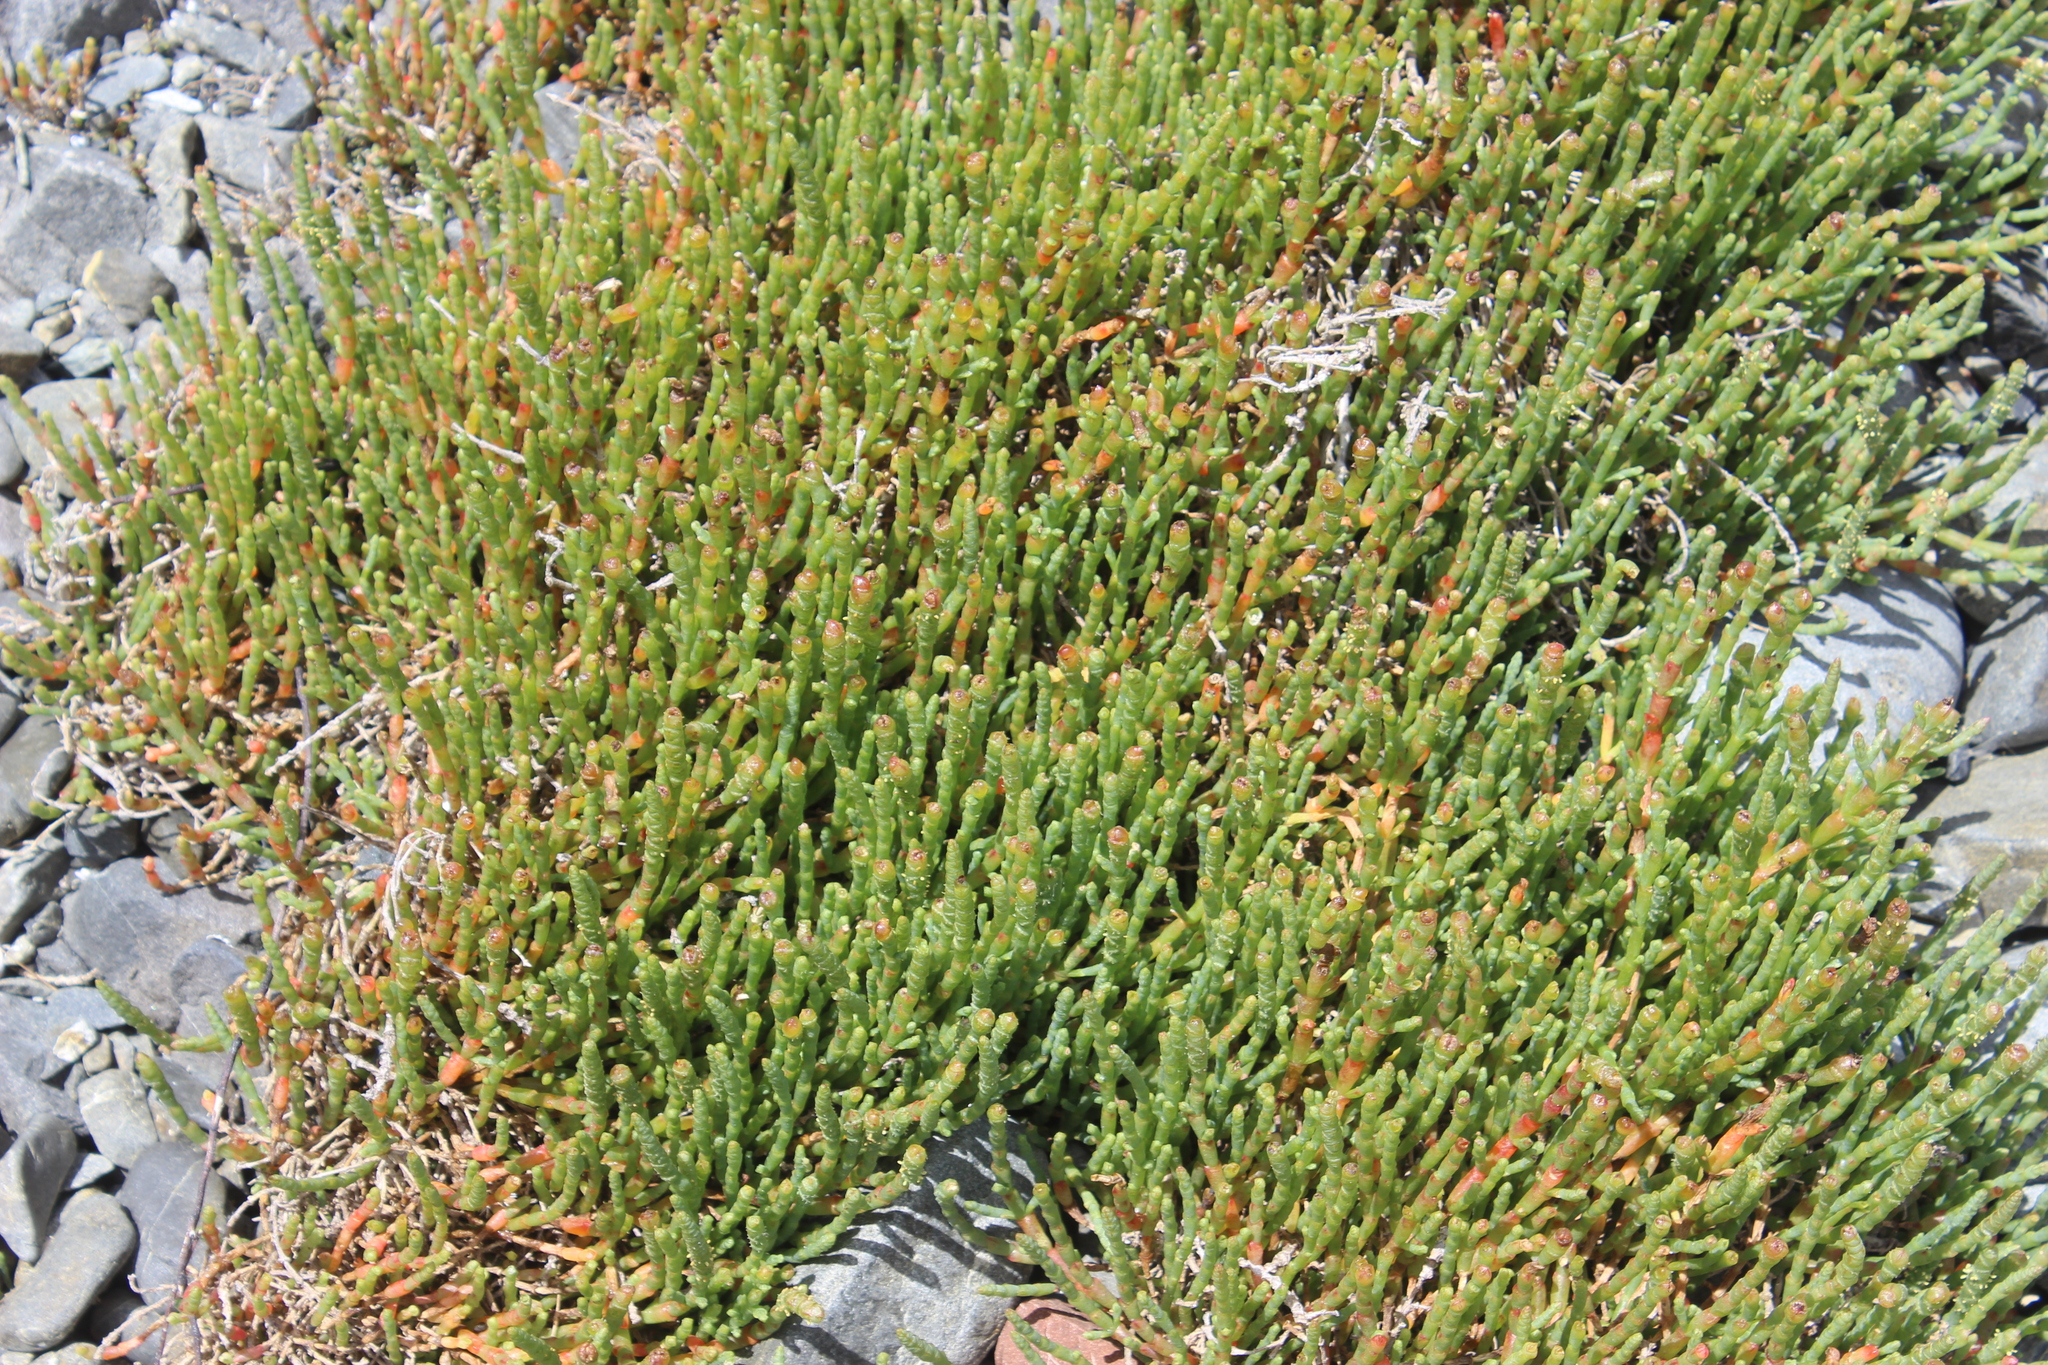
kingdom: Plantae
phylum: Tracheophyta
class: Magnoliopsida
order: Caryophyllales
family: Amaranthaceae
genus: Salicornia
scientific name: Salicornia quinqueflora
